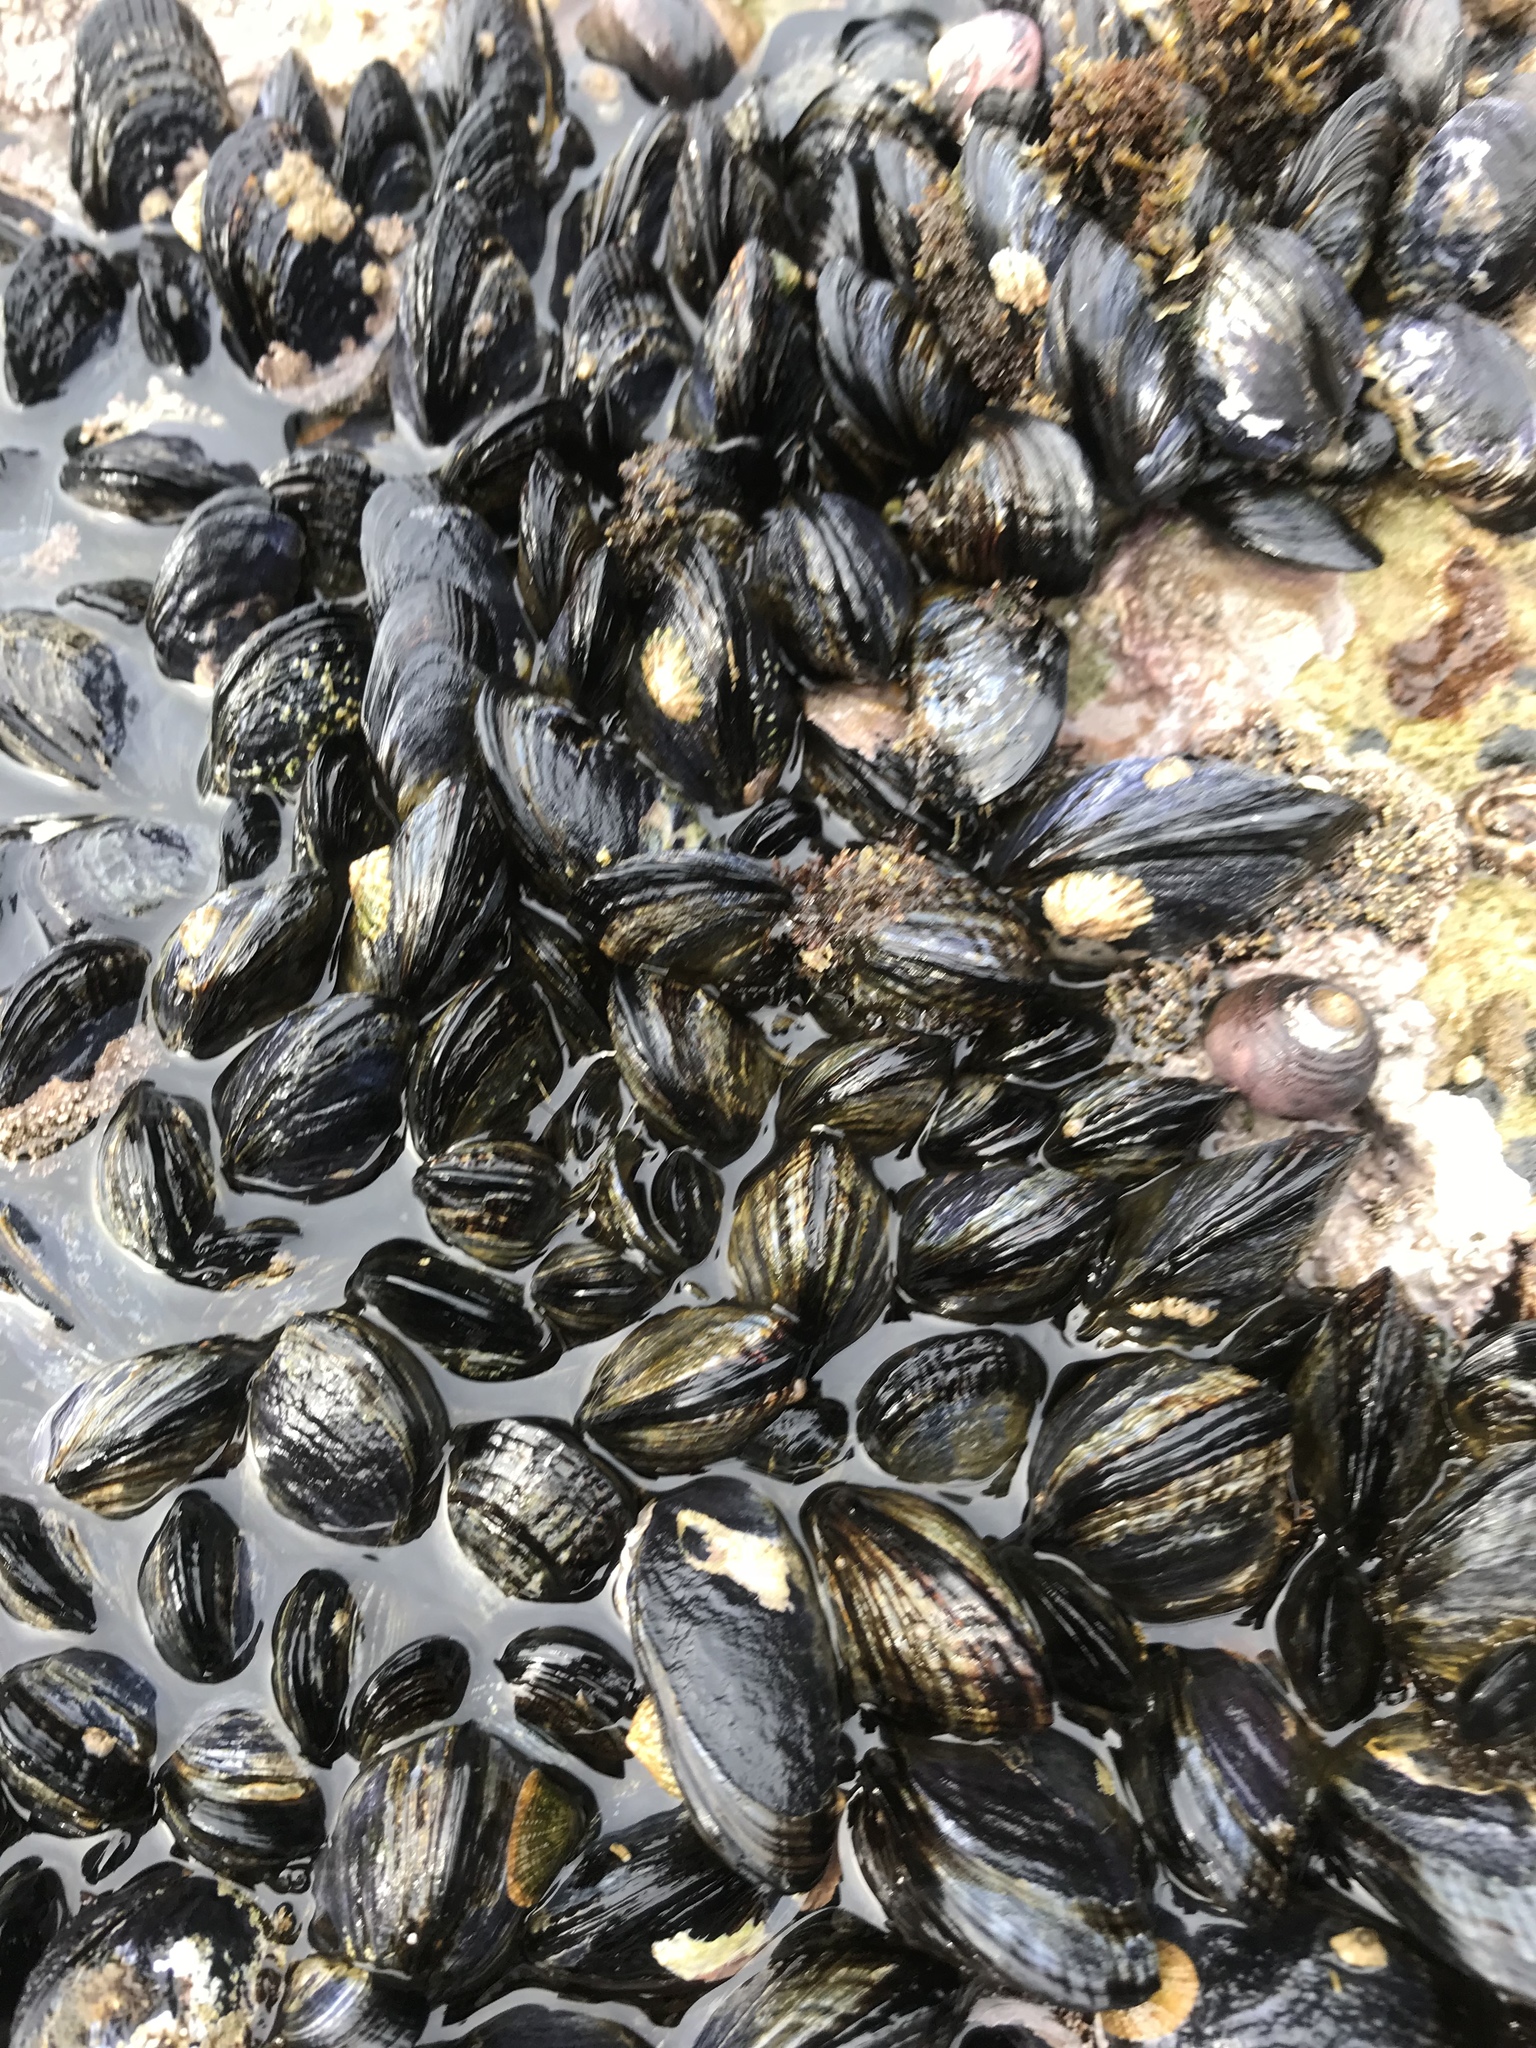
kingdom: Animalia
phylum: Mollusca
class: Bivalvia
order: Mytilida
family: Mytilidae
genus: Mytilus
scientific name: Mytilus californianus
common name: California mussel
